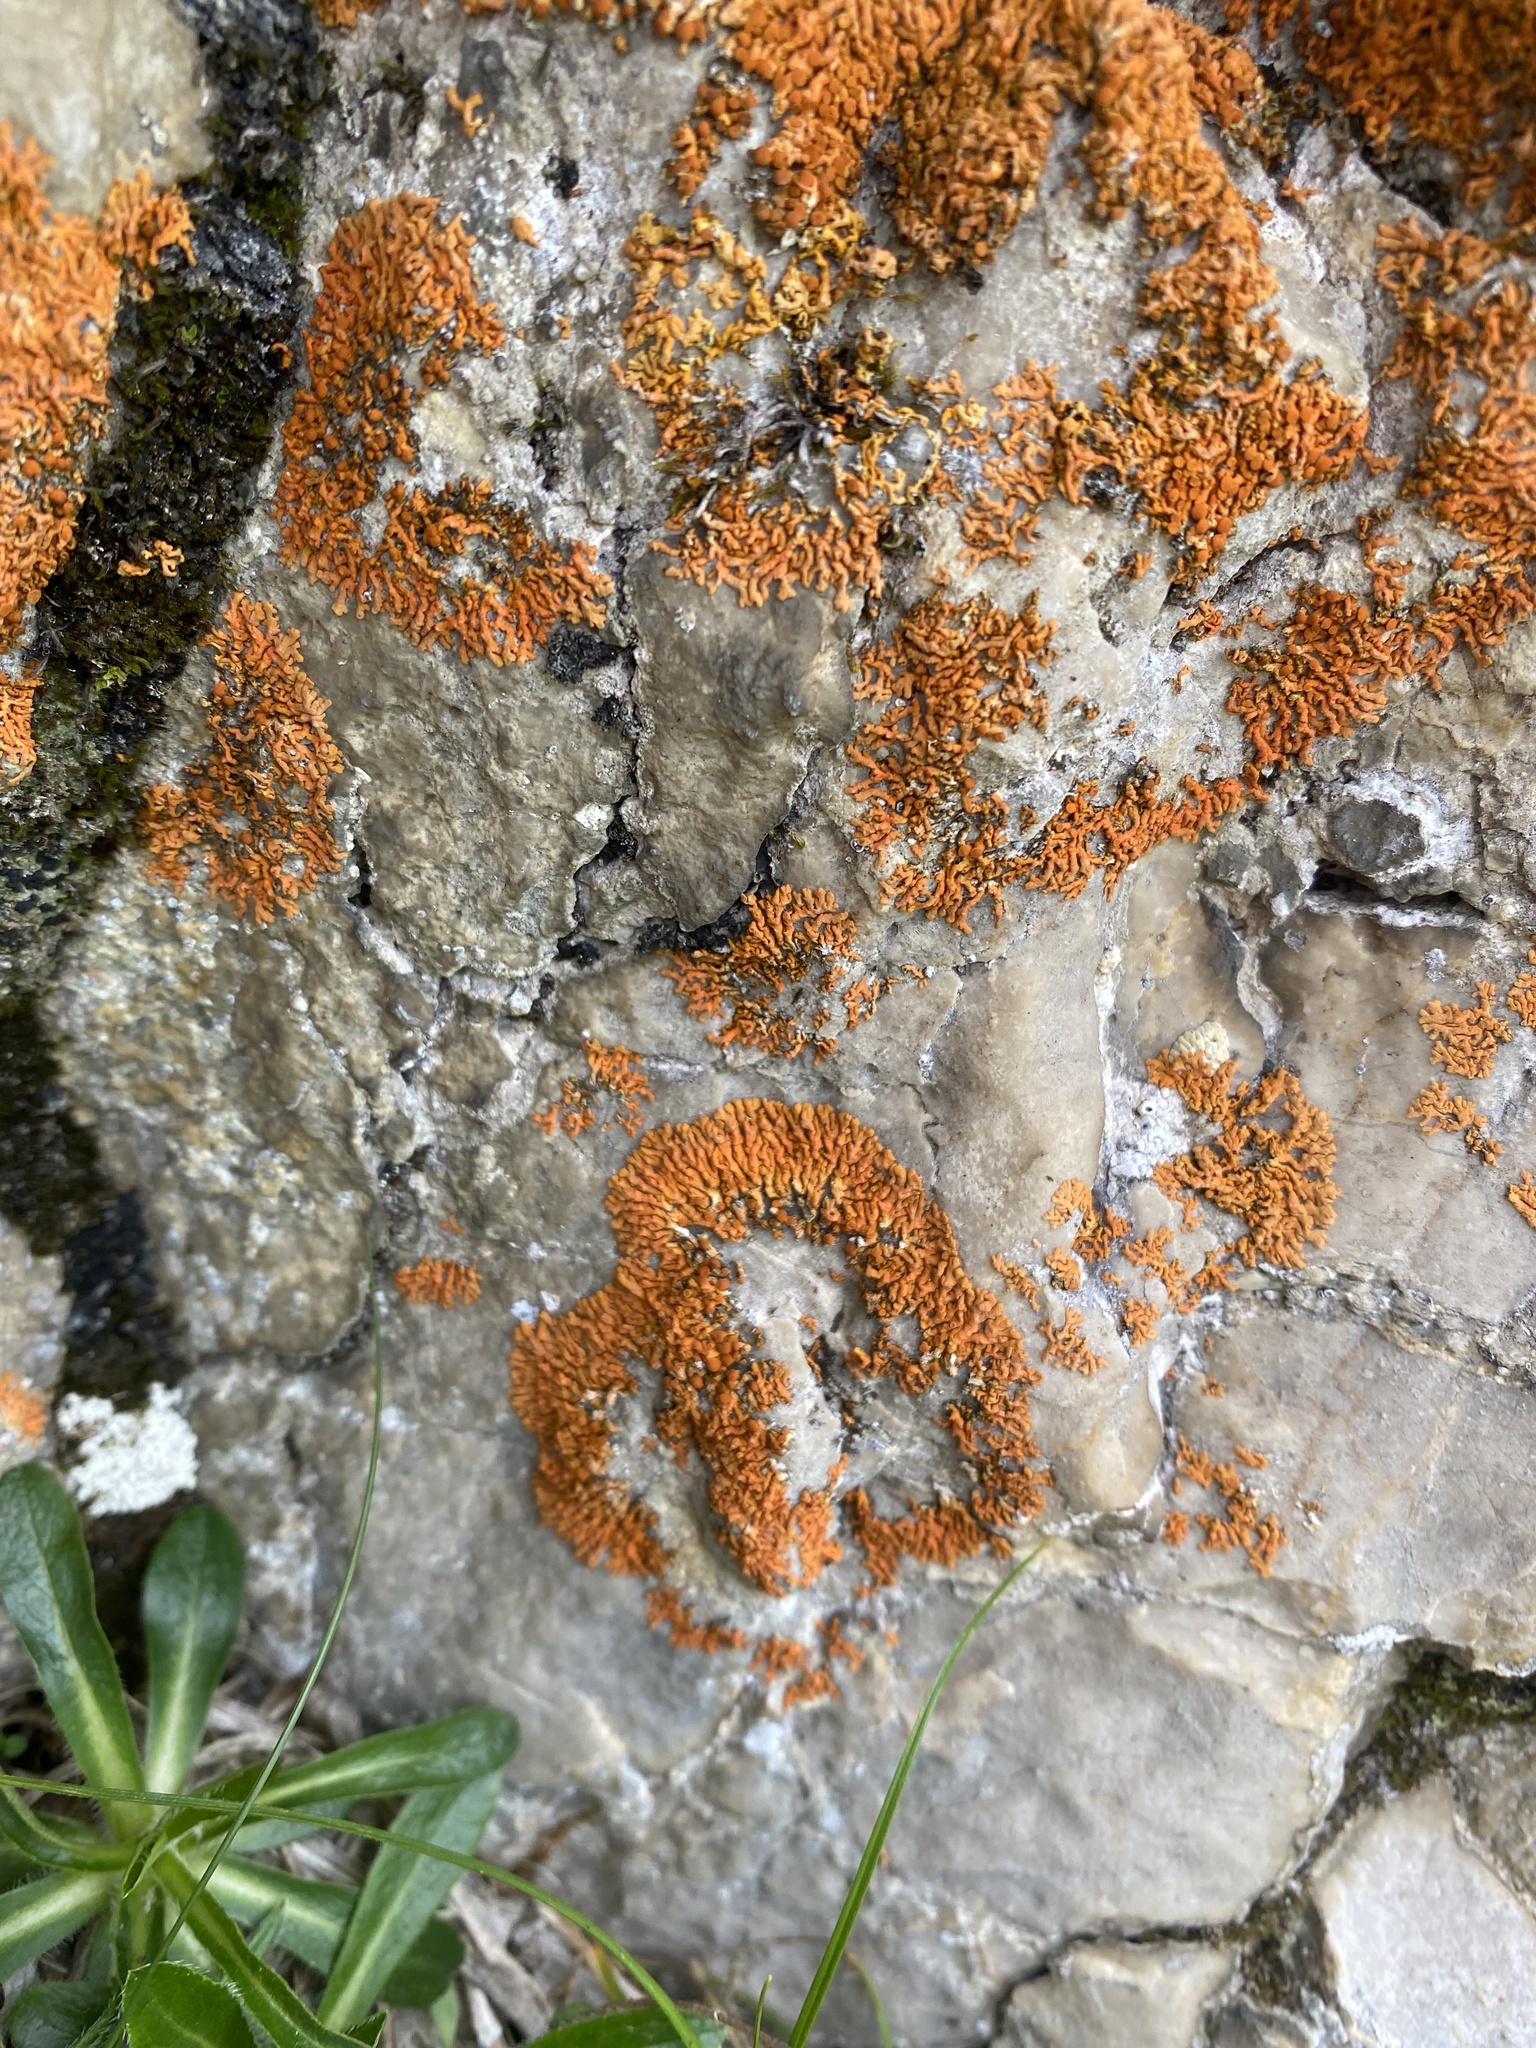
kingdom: Fungi
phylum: Ascomycota
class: Lecanoromycetes
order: Teloschistales
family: Teloschistaceae
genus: Xanthoria
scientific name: Xanthoria elegans
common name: Elegant sunburst lichen
